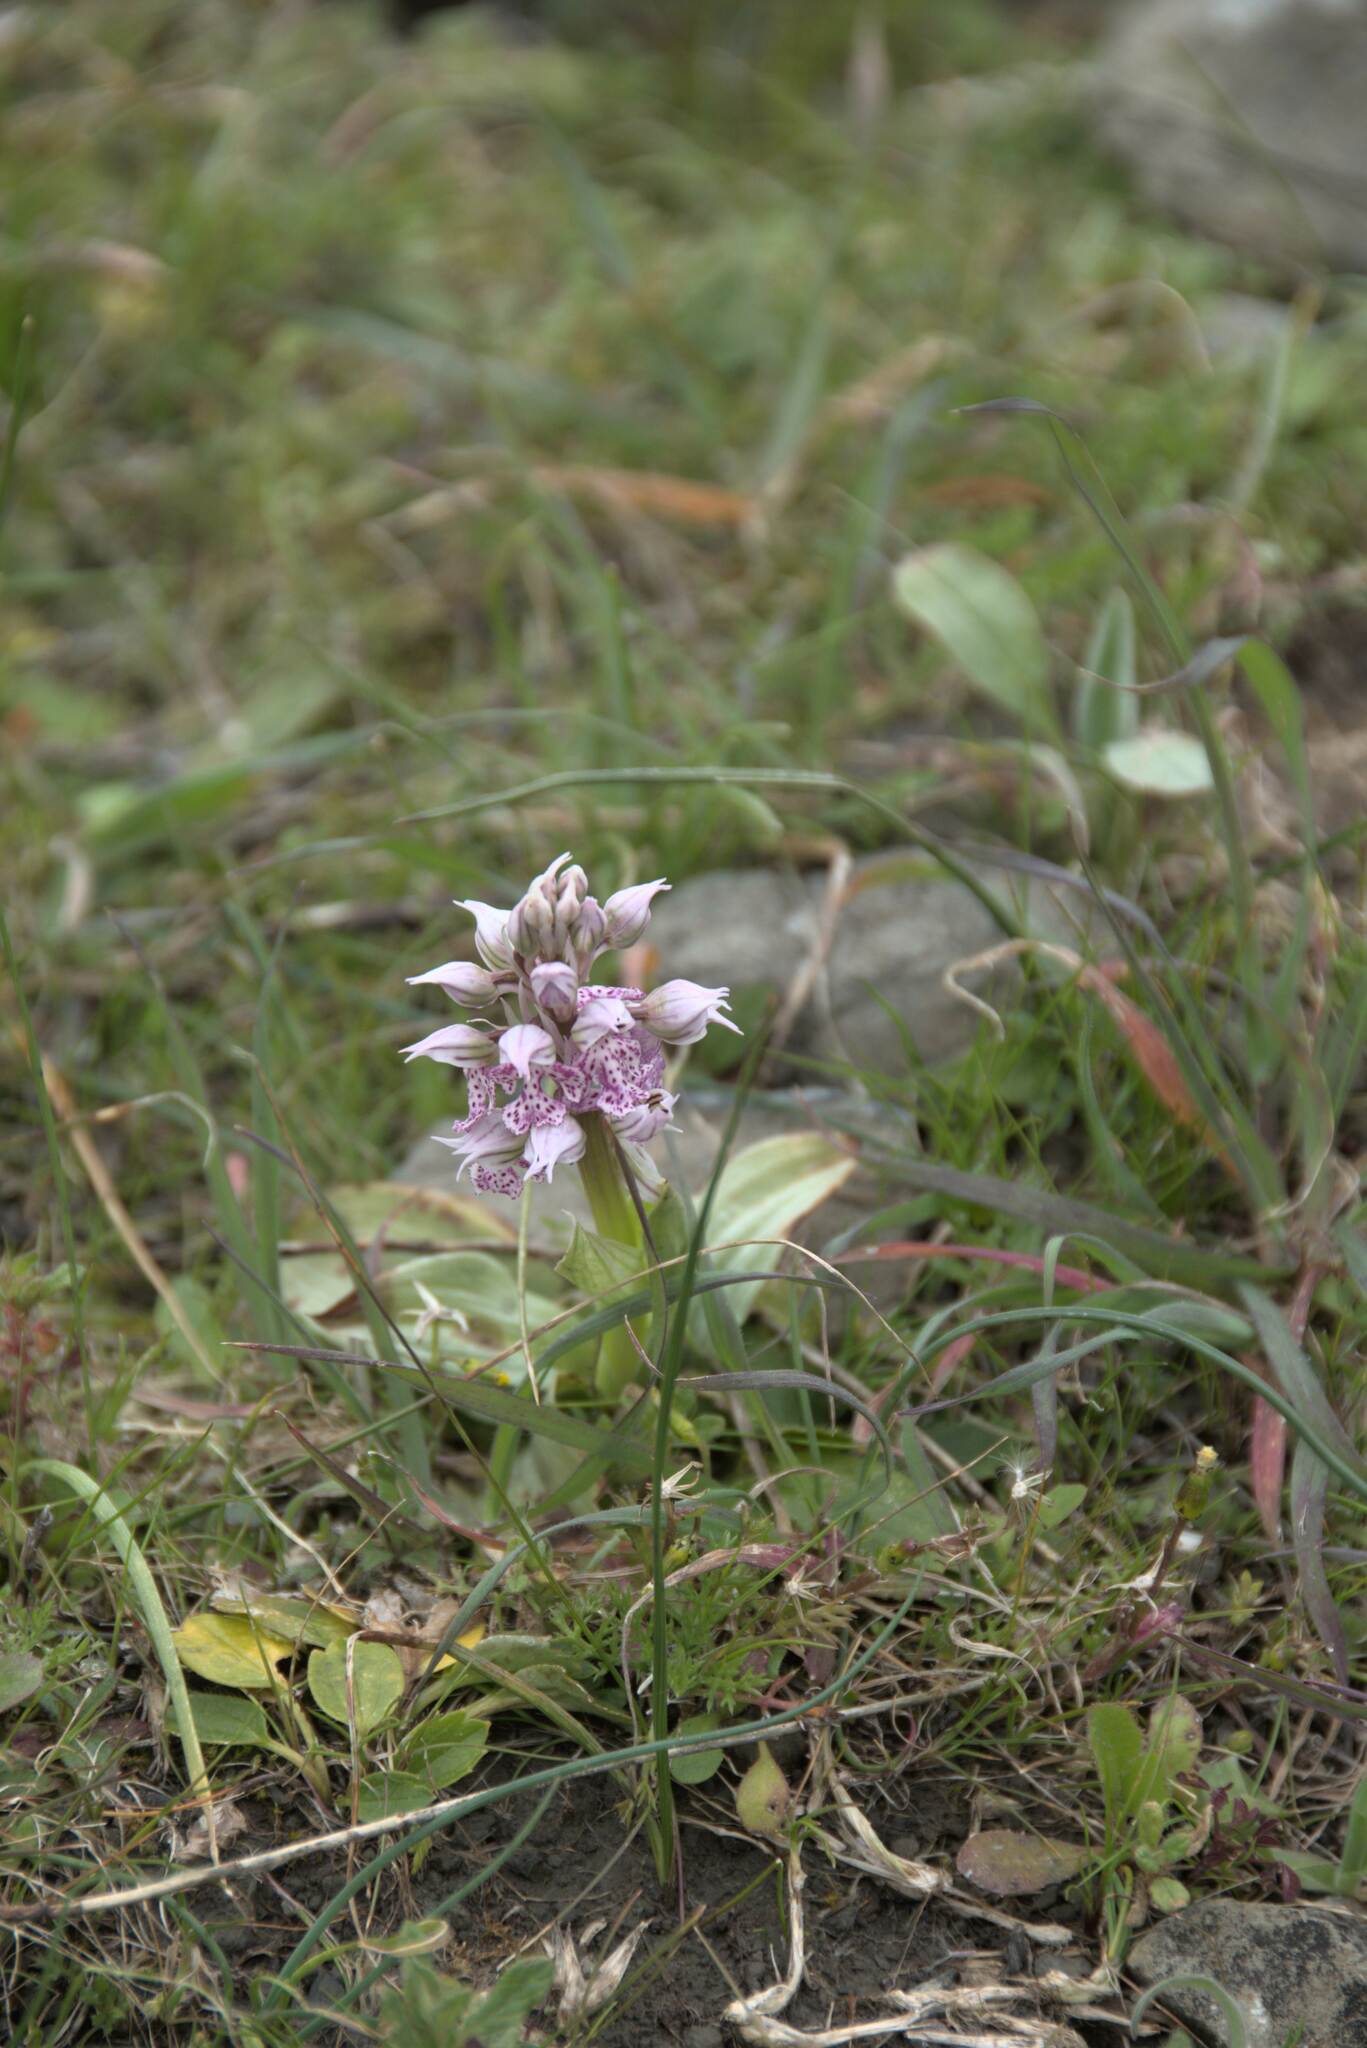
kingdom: Plantae
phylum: Tracheophyta
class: Liliopsida
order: Asparagales
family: Orchidaceae
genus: Neotinea
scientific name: Neotinea lactea
